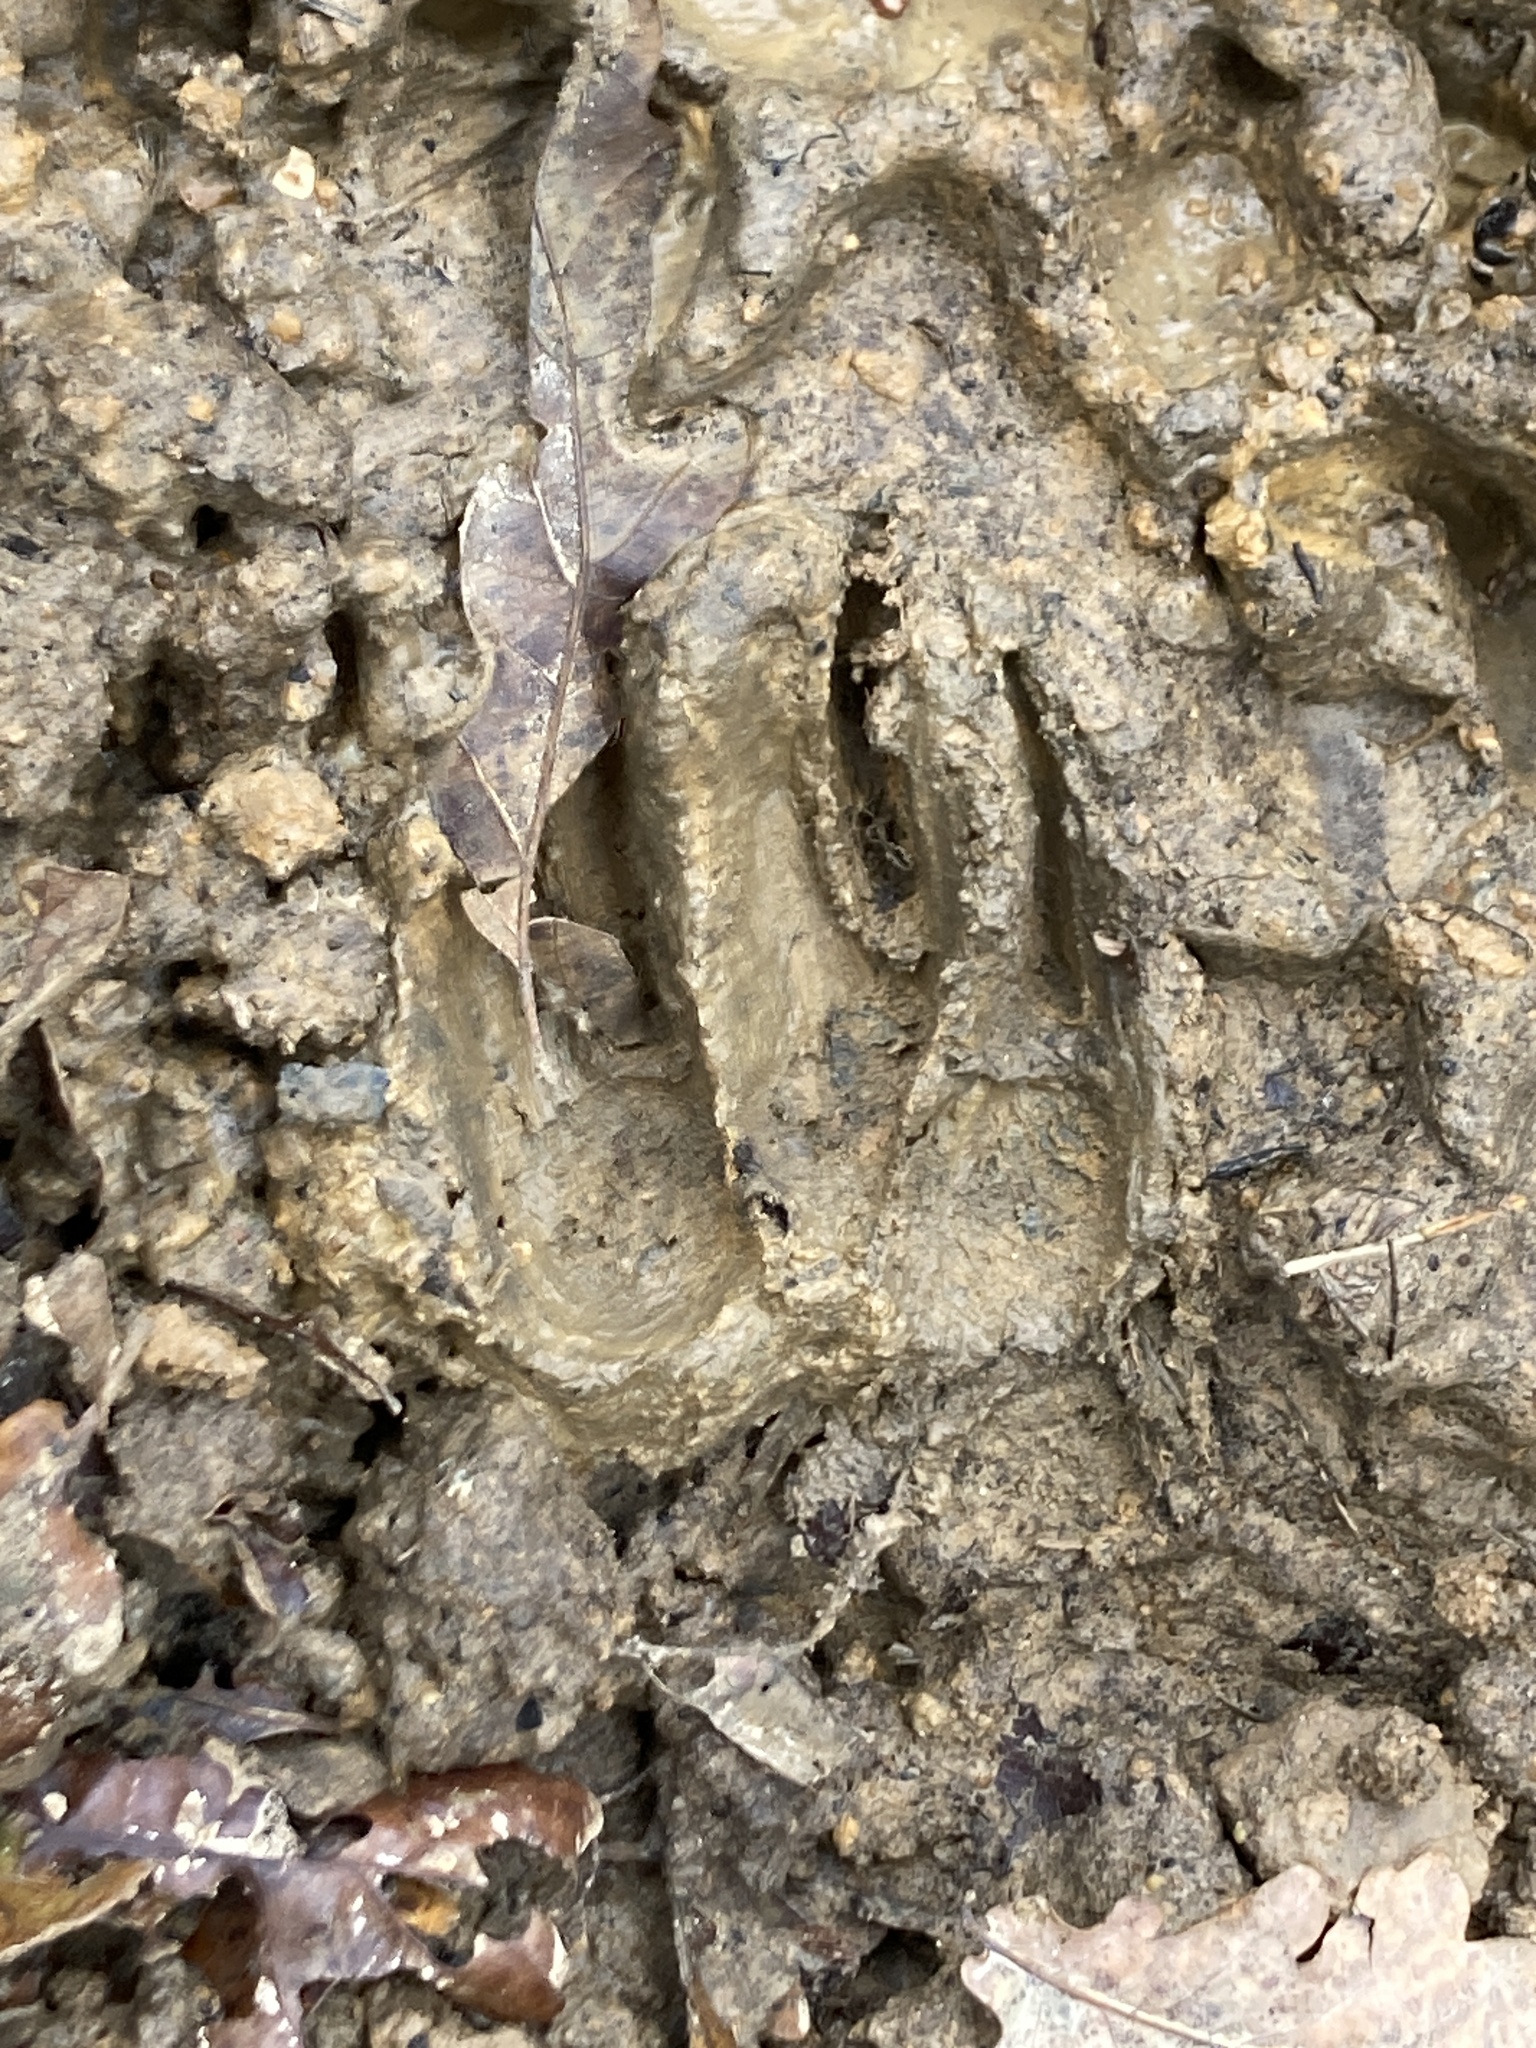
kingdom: Animalia
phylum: Chordata
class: Mammalia
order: Carnivora
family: Mustelidae
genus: Meles
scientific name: Meles meles
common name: Eurasian badger
